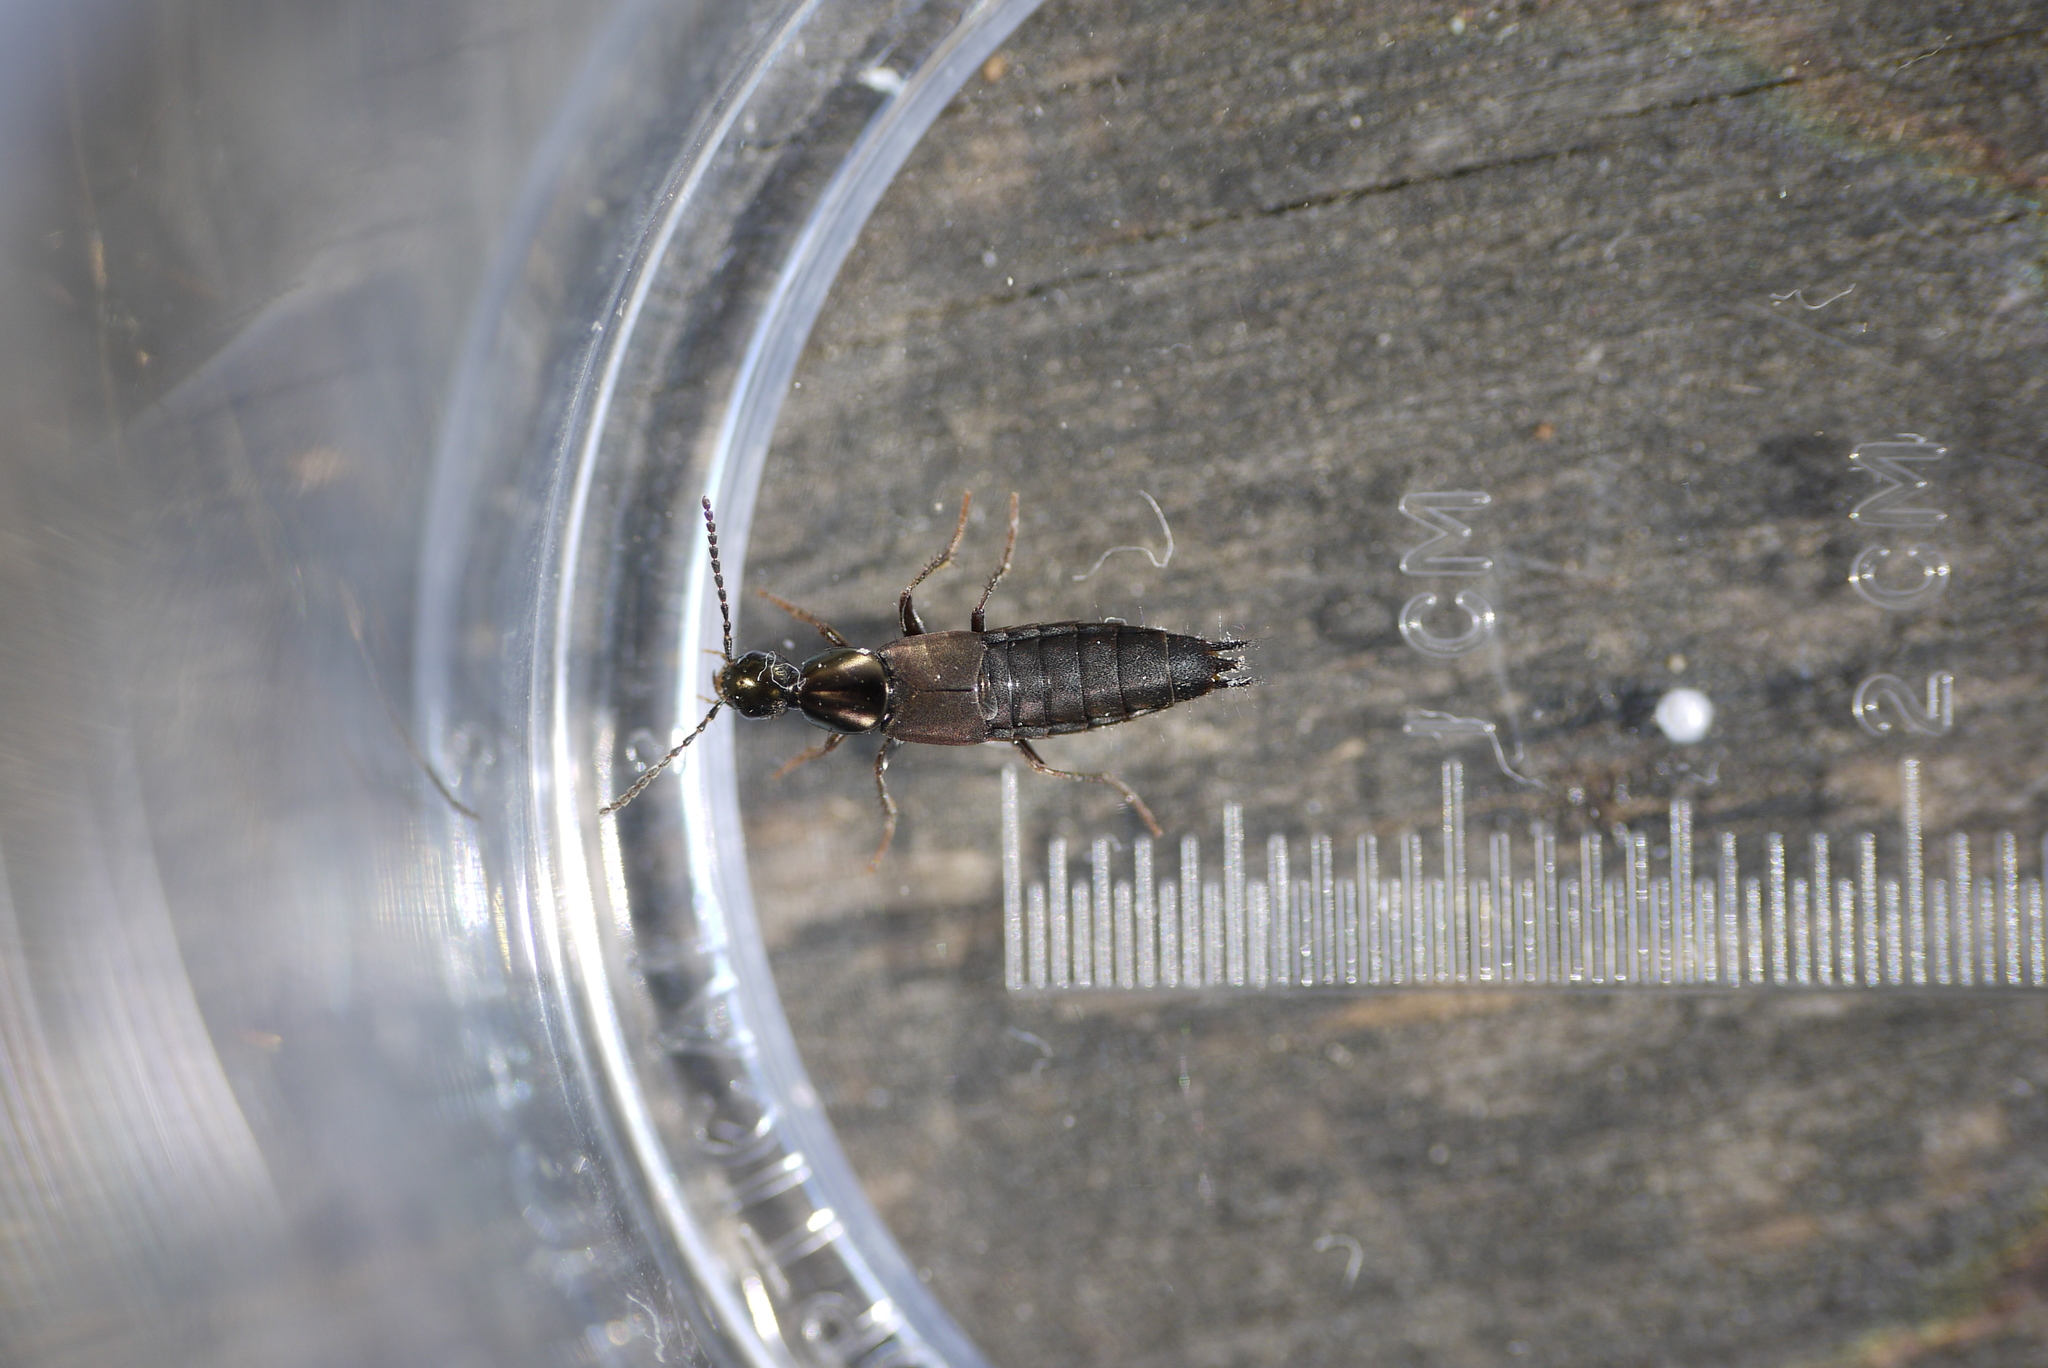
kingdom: Animalia
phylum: Arthropoda
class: Insecta
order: Coleoptera
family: Staphylinidae
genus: Philonthus
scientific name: Philonthus decorus
